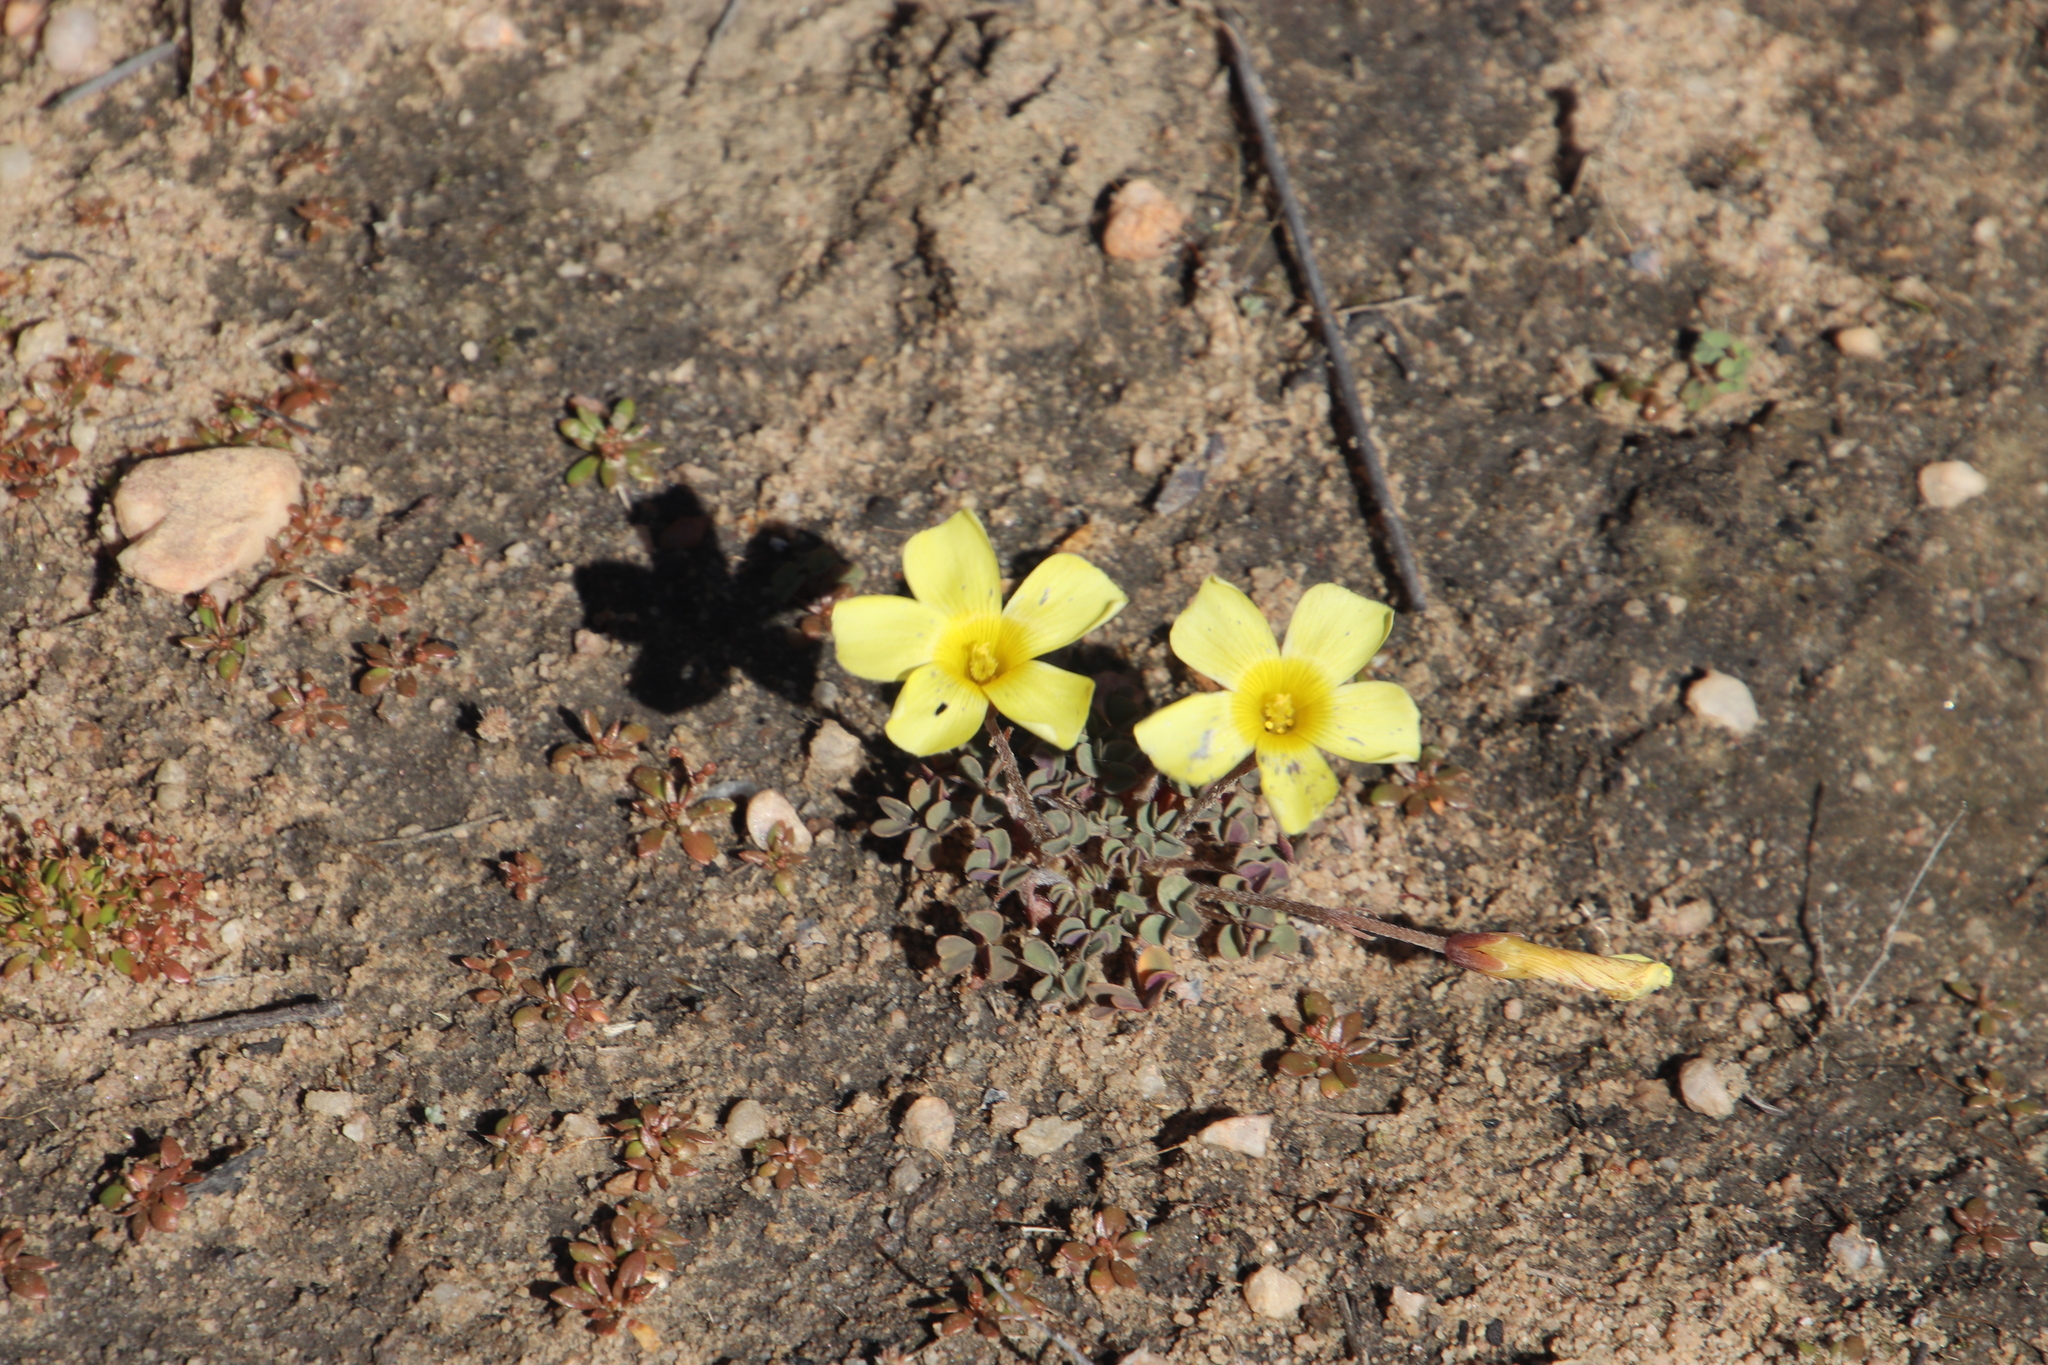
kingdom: Plantae
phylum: Tracheophyta
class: Magnoliopsida
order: Oxalidales
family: Oxalidaceae
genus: Oxalis
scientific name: Oxalis obtusa
